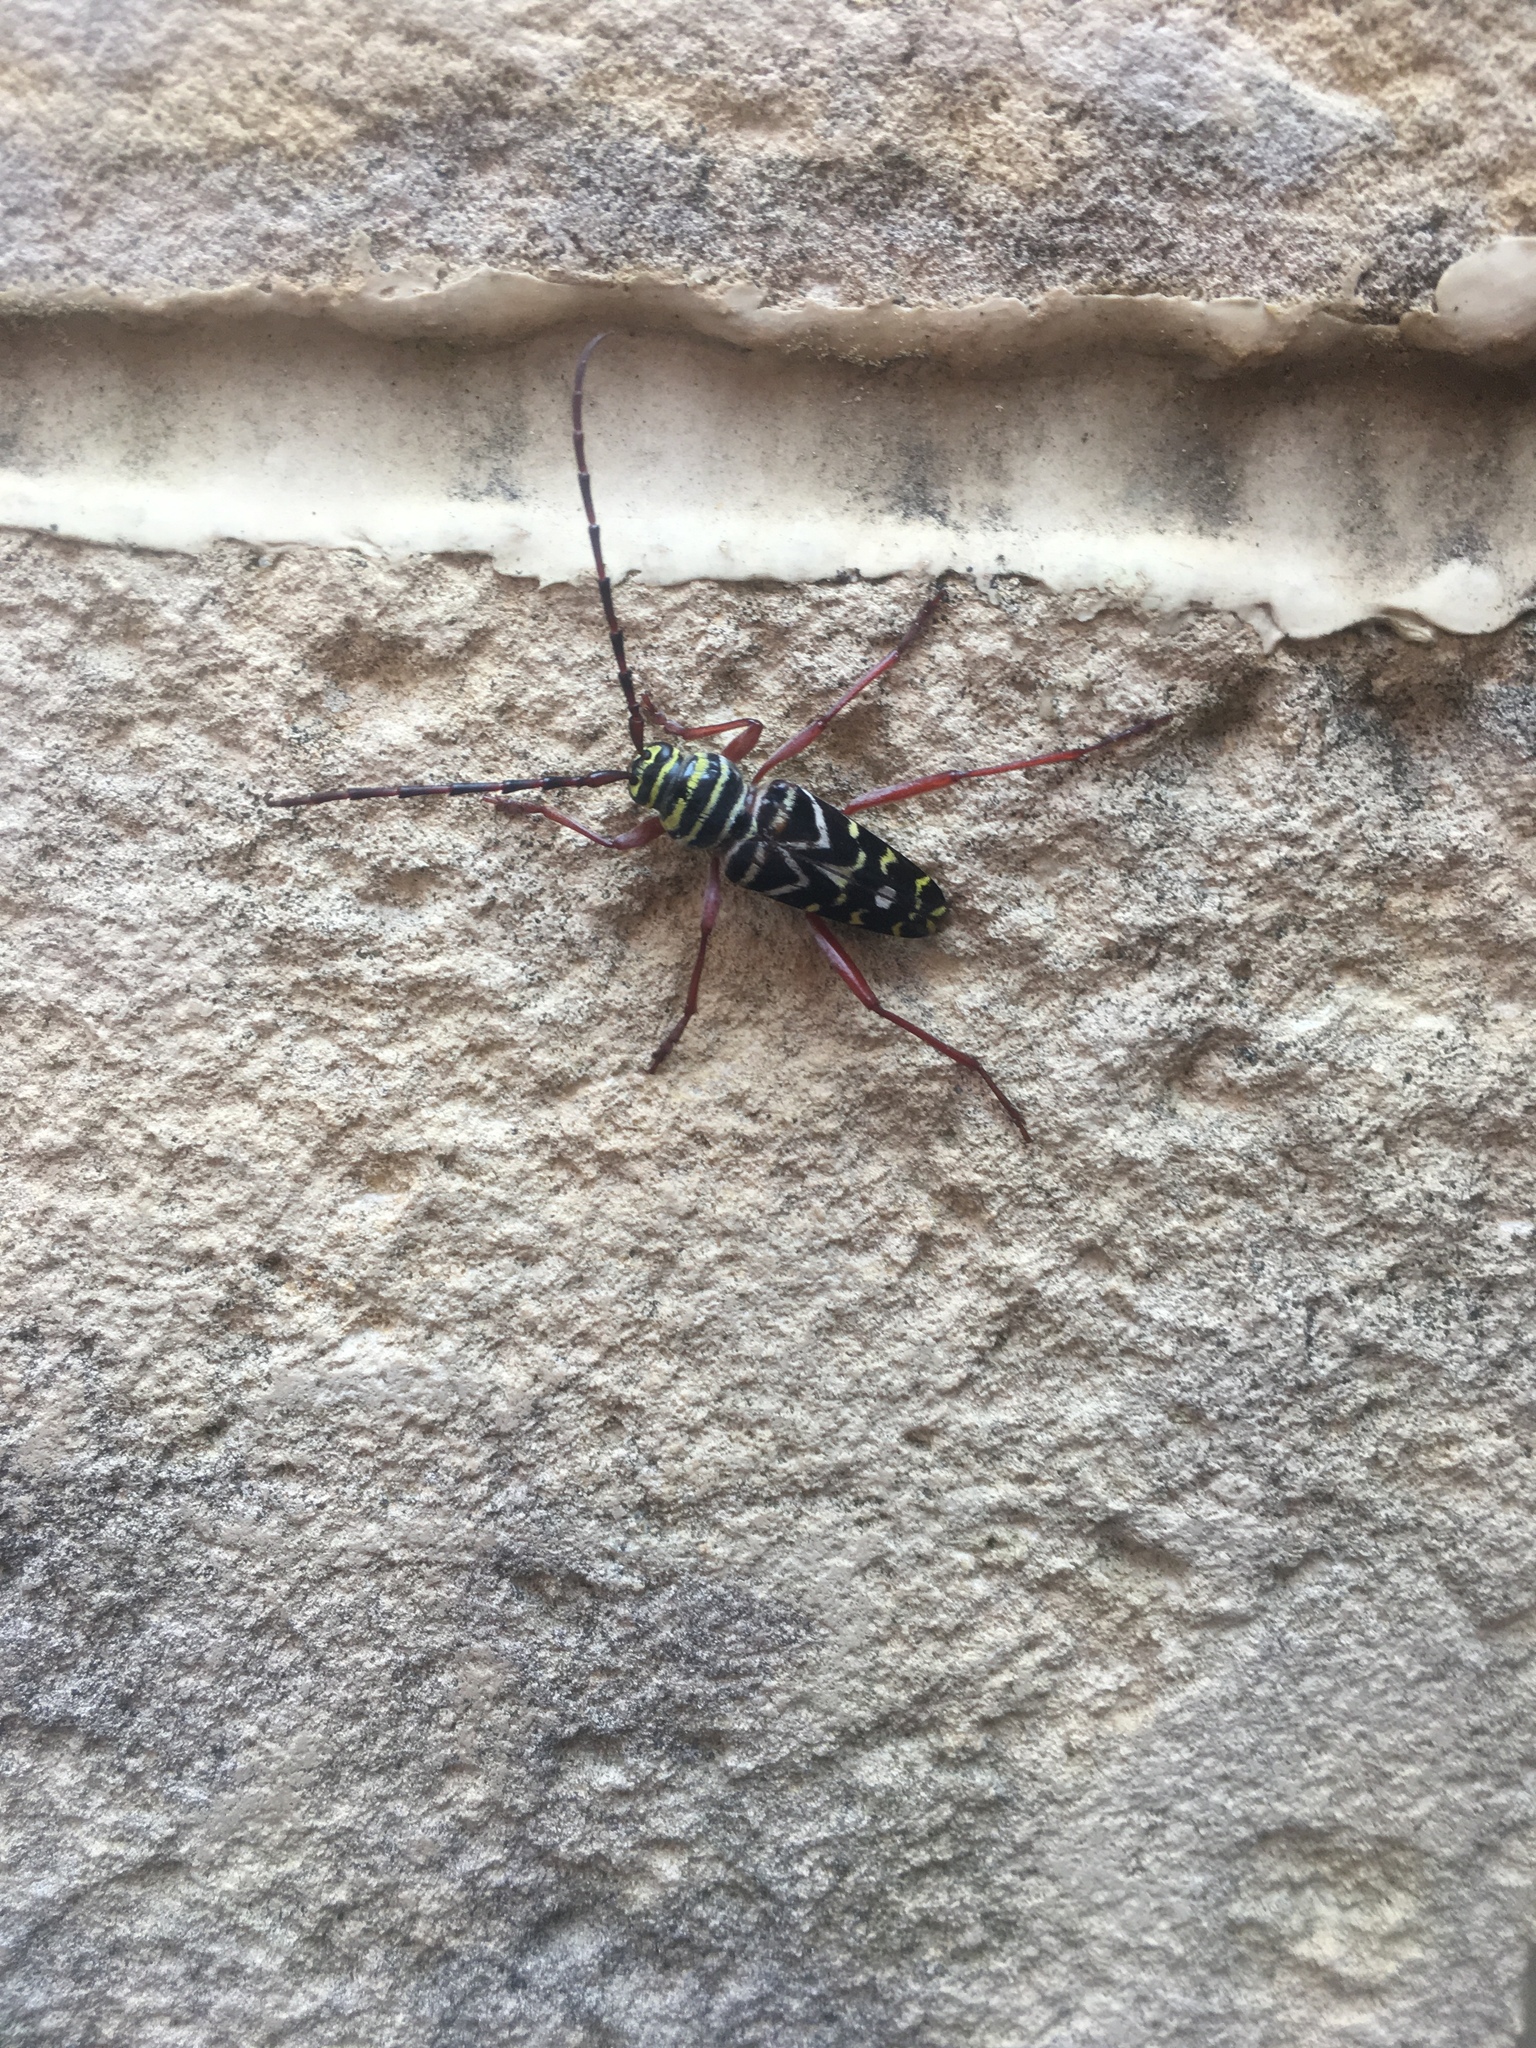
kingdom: Animalia
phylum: Arthropoda
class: Insecta
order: Coleoptera
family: Cerambycidae
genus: Megacyllene
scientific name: Megacyllene caryae
